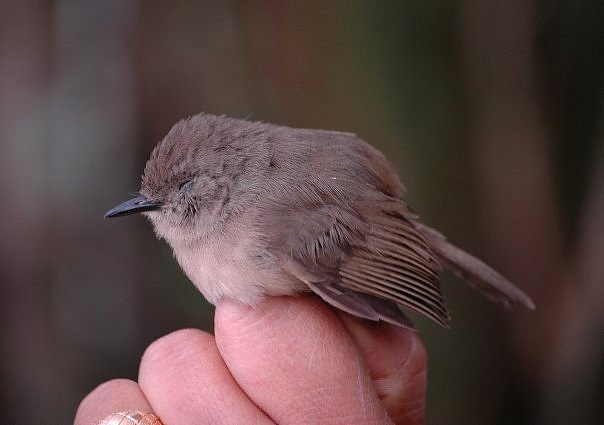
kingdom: Animalia
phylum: Chordata
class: Aves
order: Passeriformes
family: Vangidae
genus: Newtonia
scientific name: Newtonia amphichroa
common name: Dark newtonia
